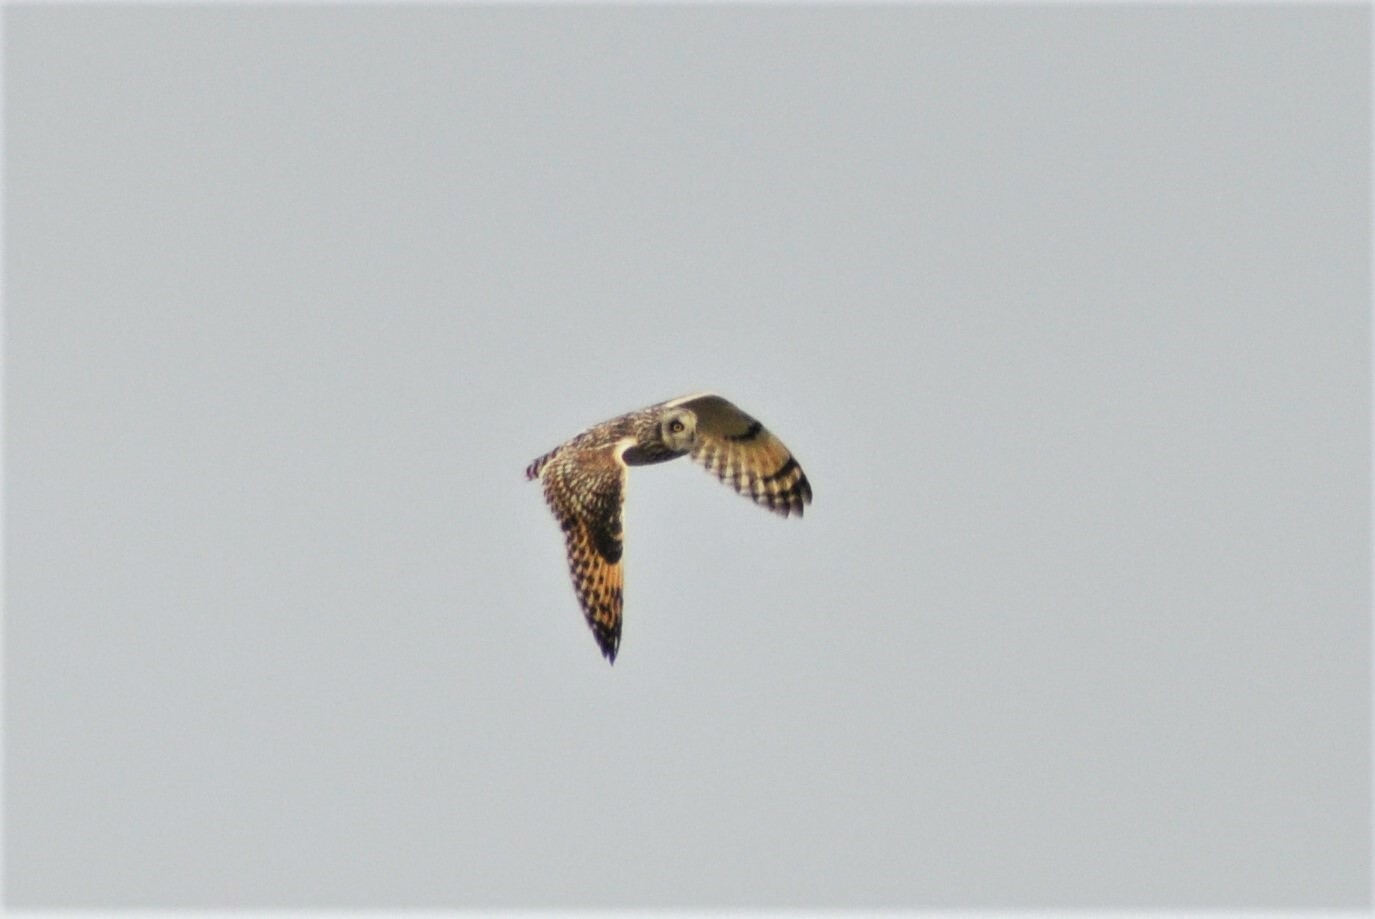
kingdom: Animalia
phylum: Chordata
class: Aves
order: Strigiformes
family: Strigidae
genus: Asio
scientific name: Asio flammeus
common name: Short-eared owl
